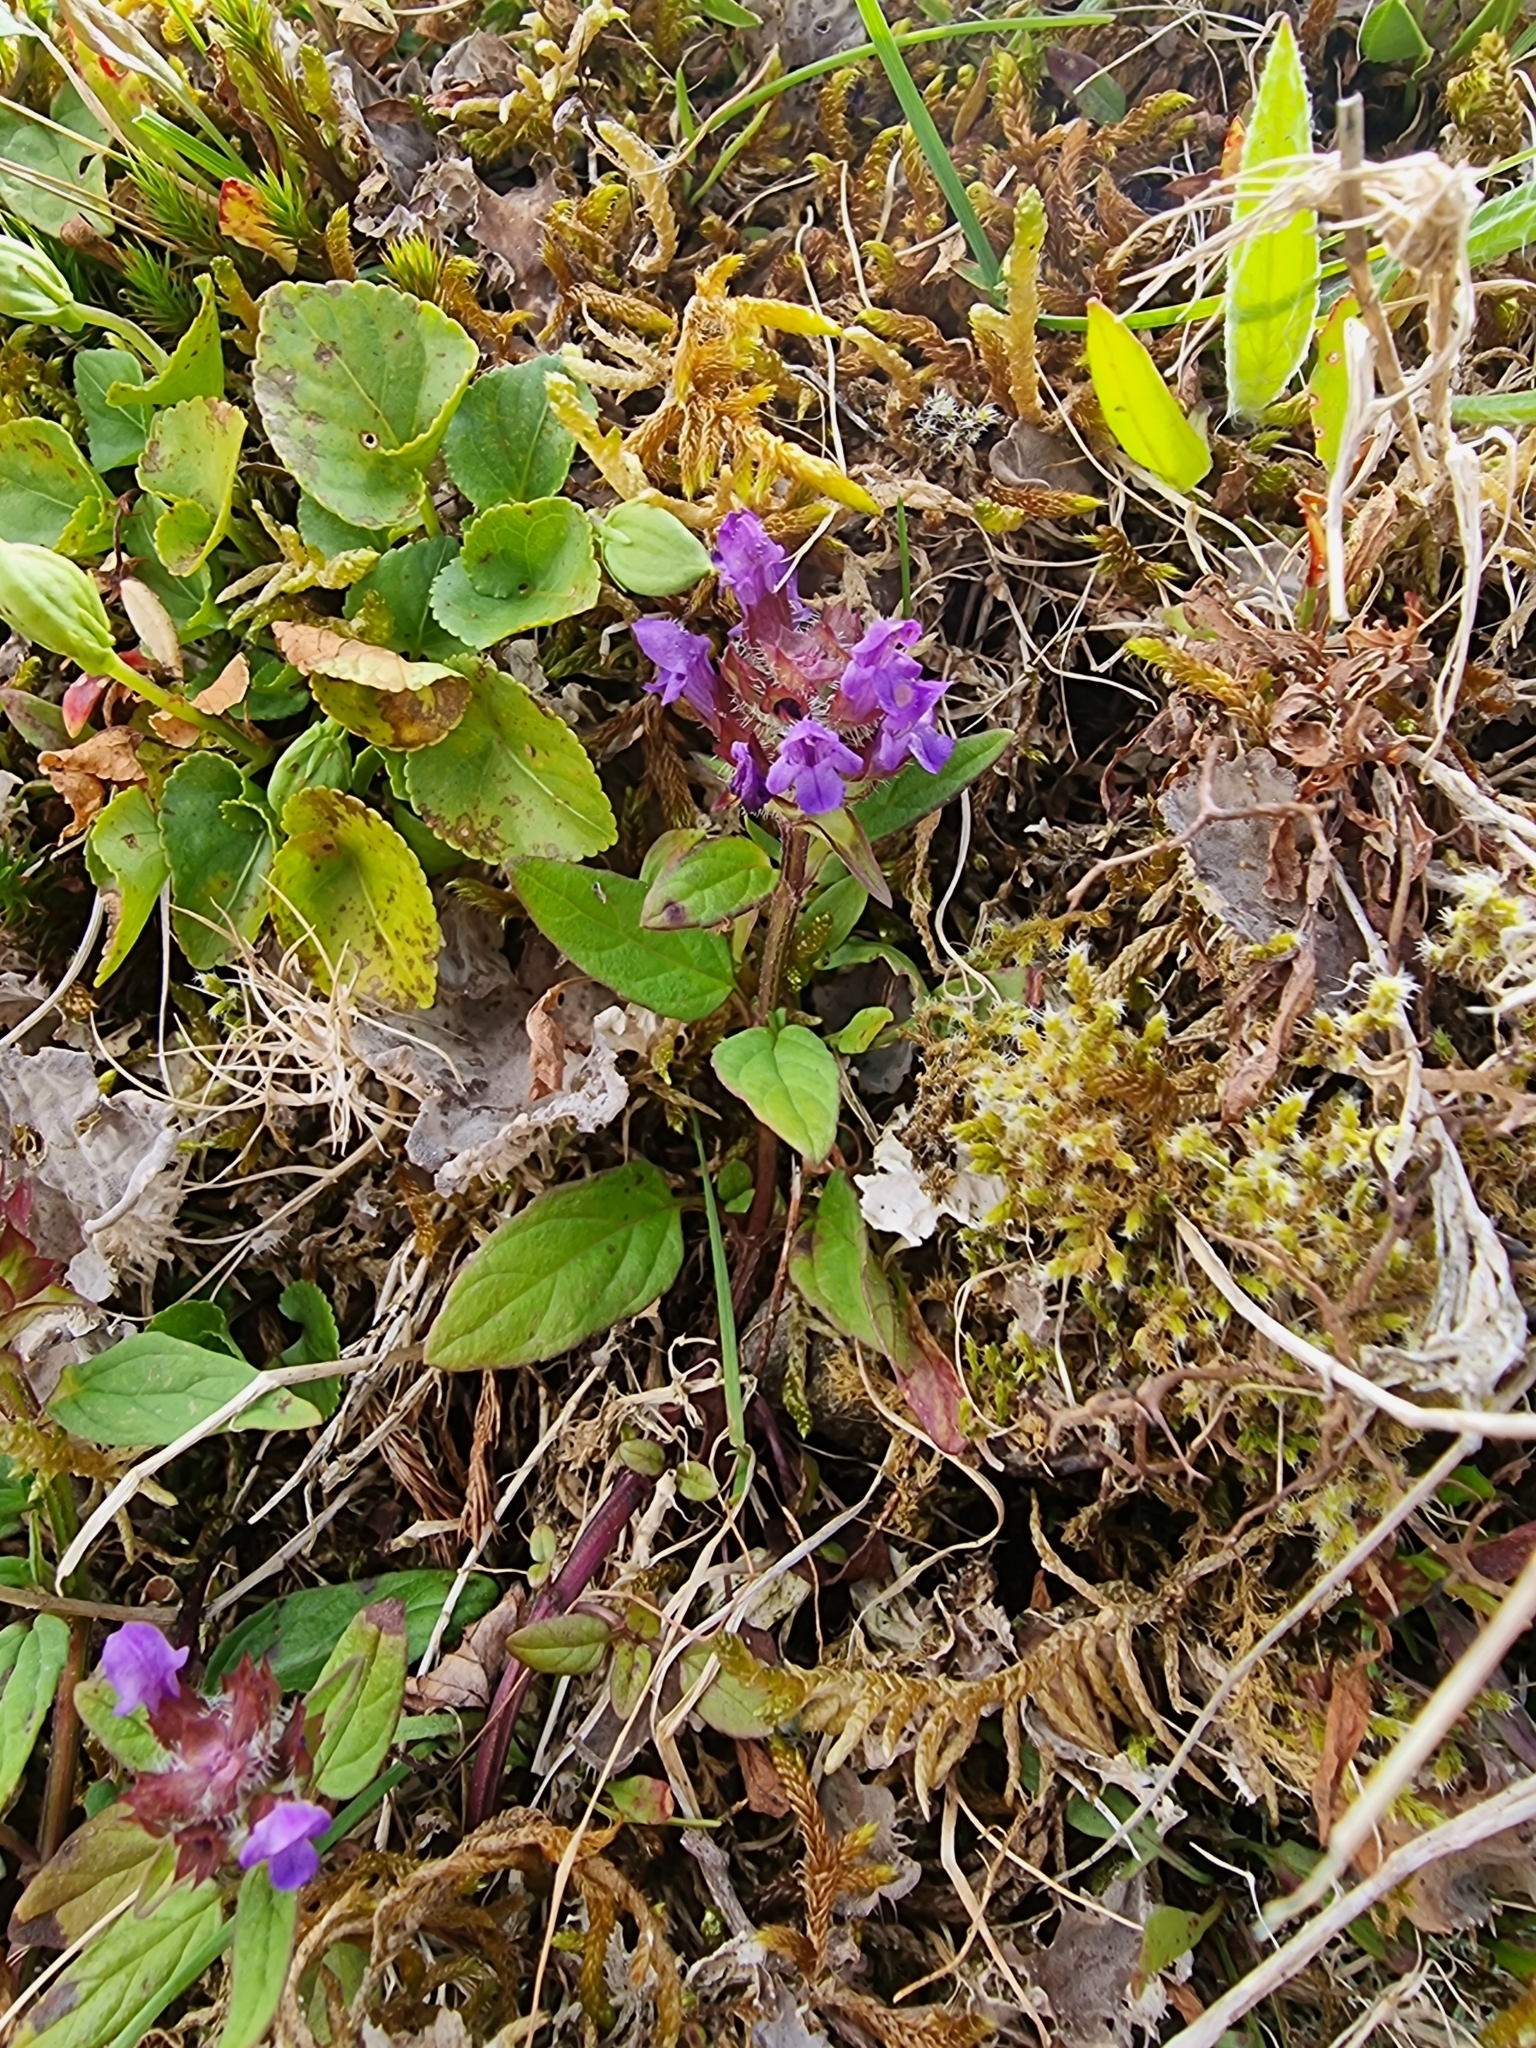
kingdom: Plantae
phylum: Tracheophyta
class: Magnoliopsida
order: Lamiales
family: Lamiaceae
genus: Prunella
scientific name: Prunella vulgaris
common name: Heal-all
